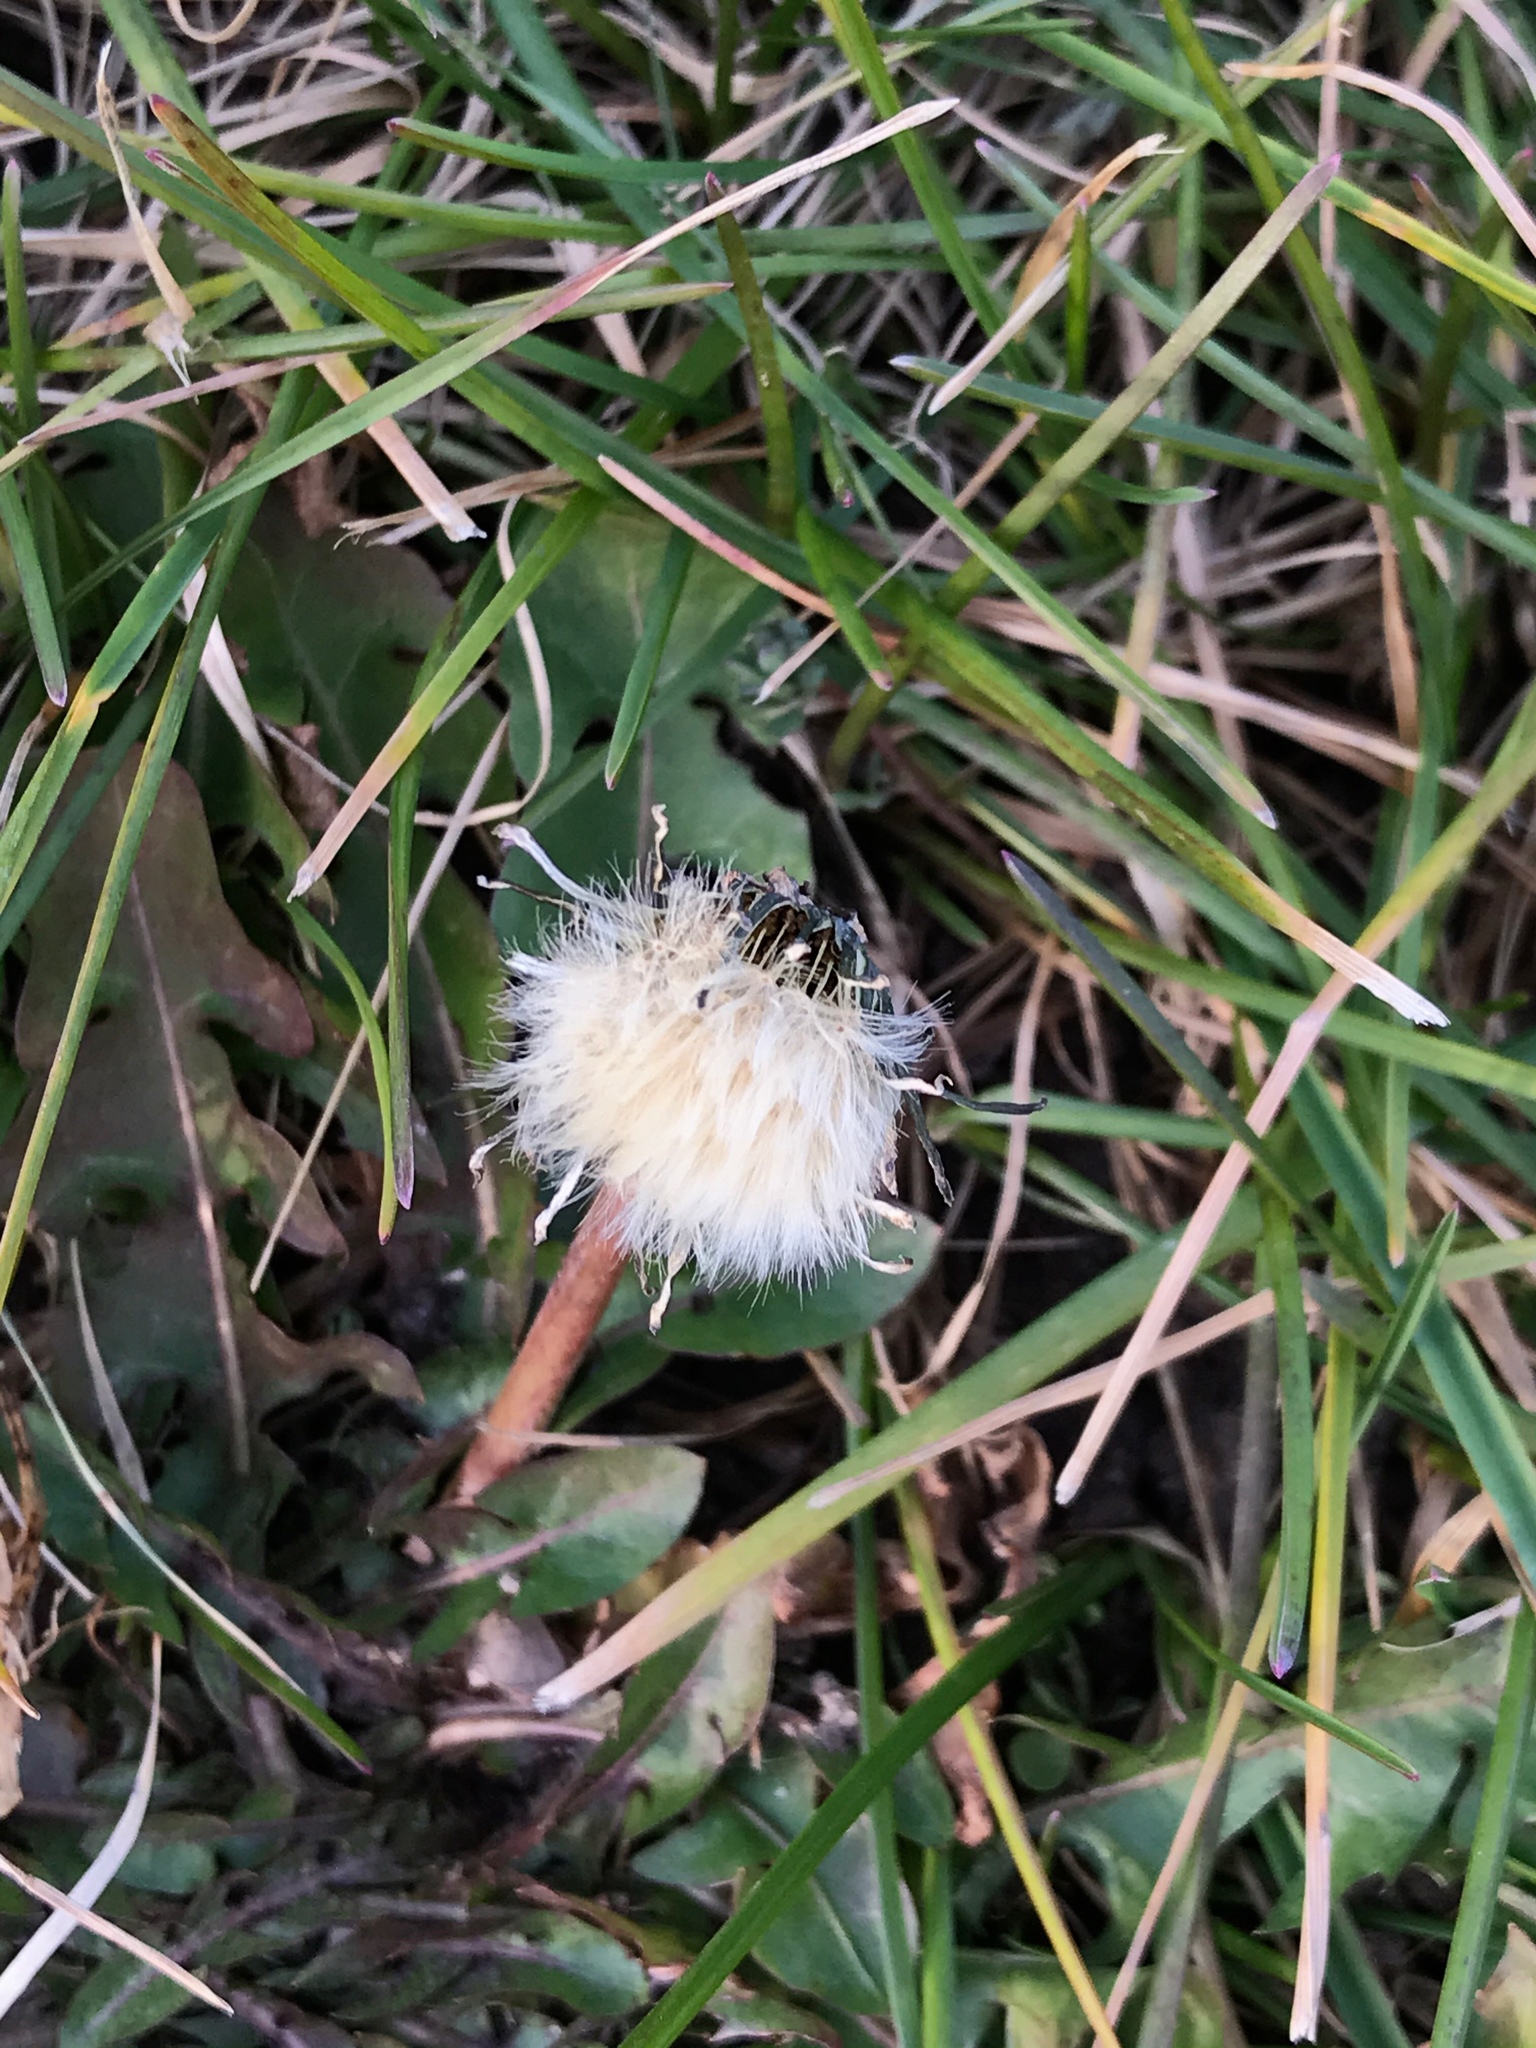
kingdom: Plantae
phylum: Tracheophyta
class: Magnoliopsida
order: Asterales
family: Asteraceae
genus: Taraxacum
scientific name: Taraxacum officinale
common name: Common dandelion
